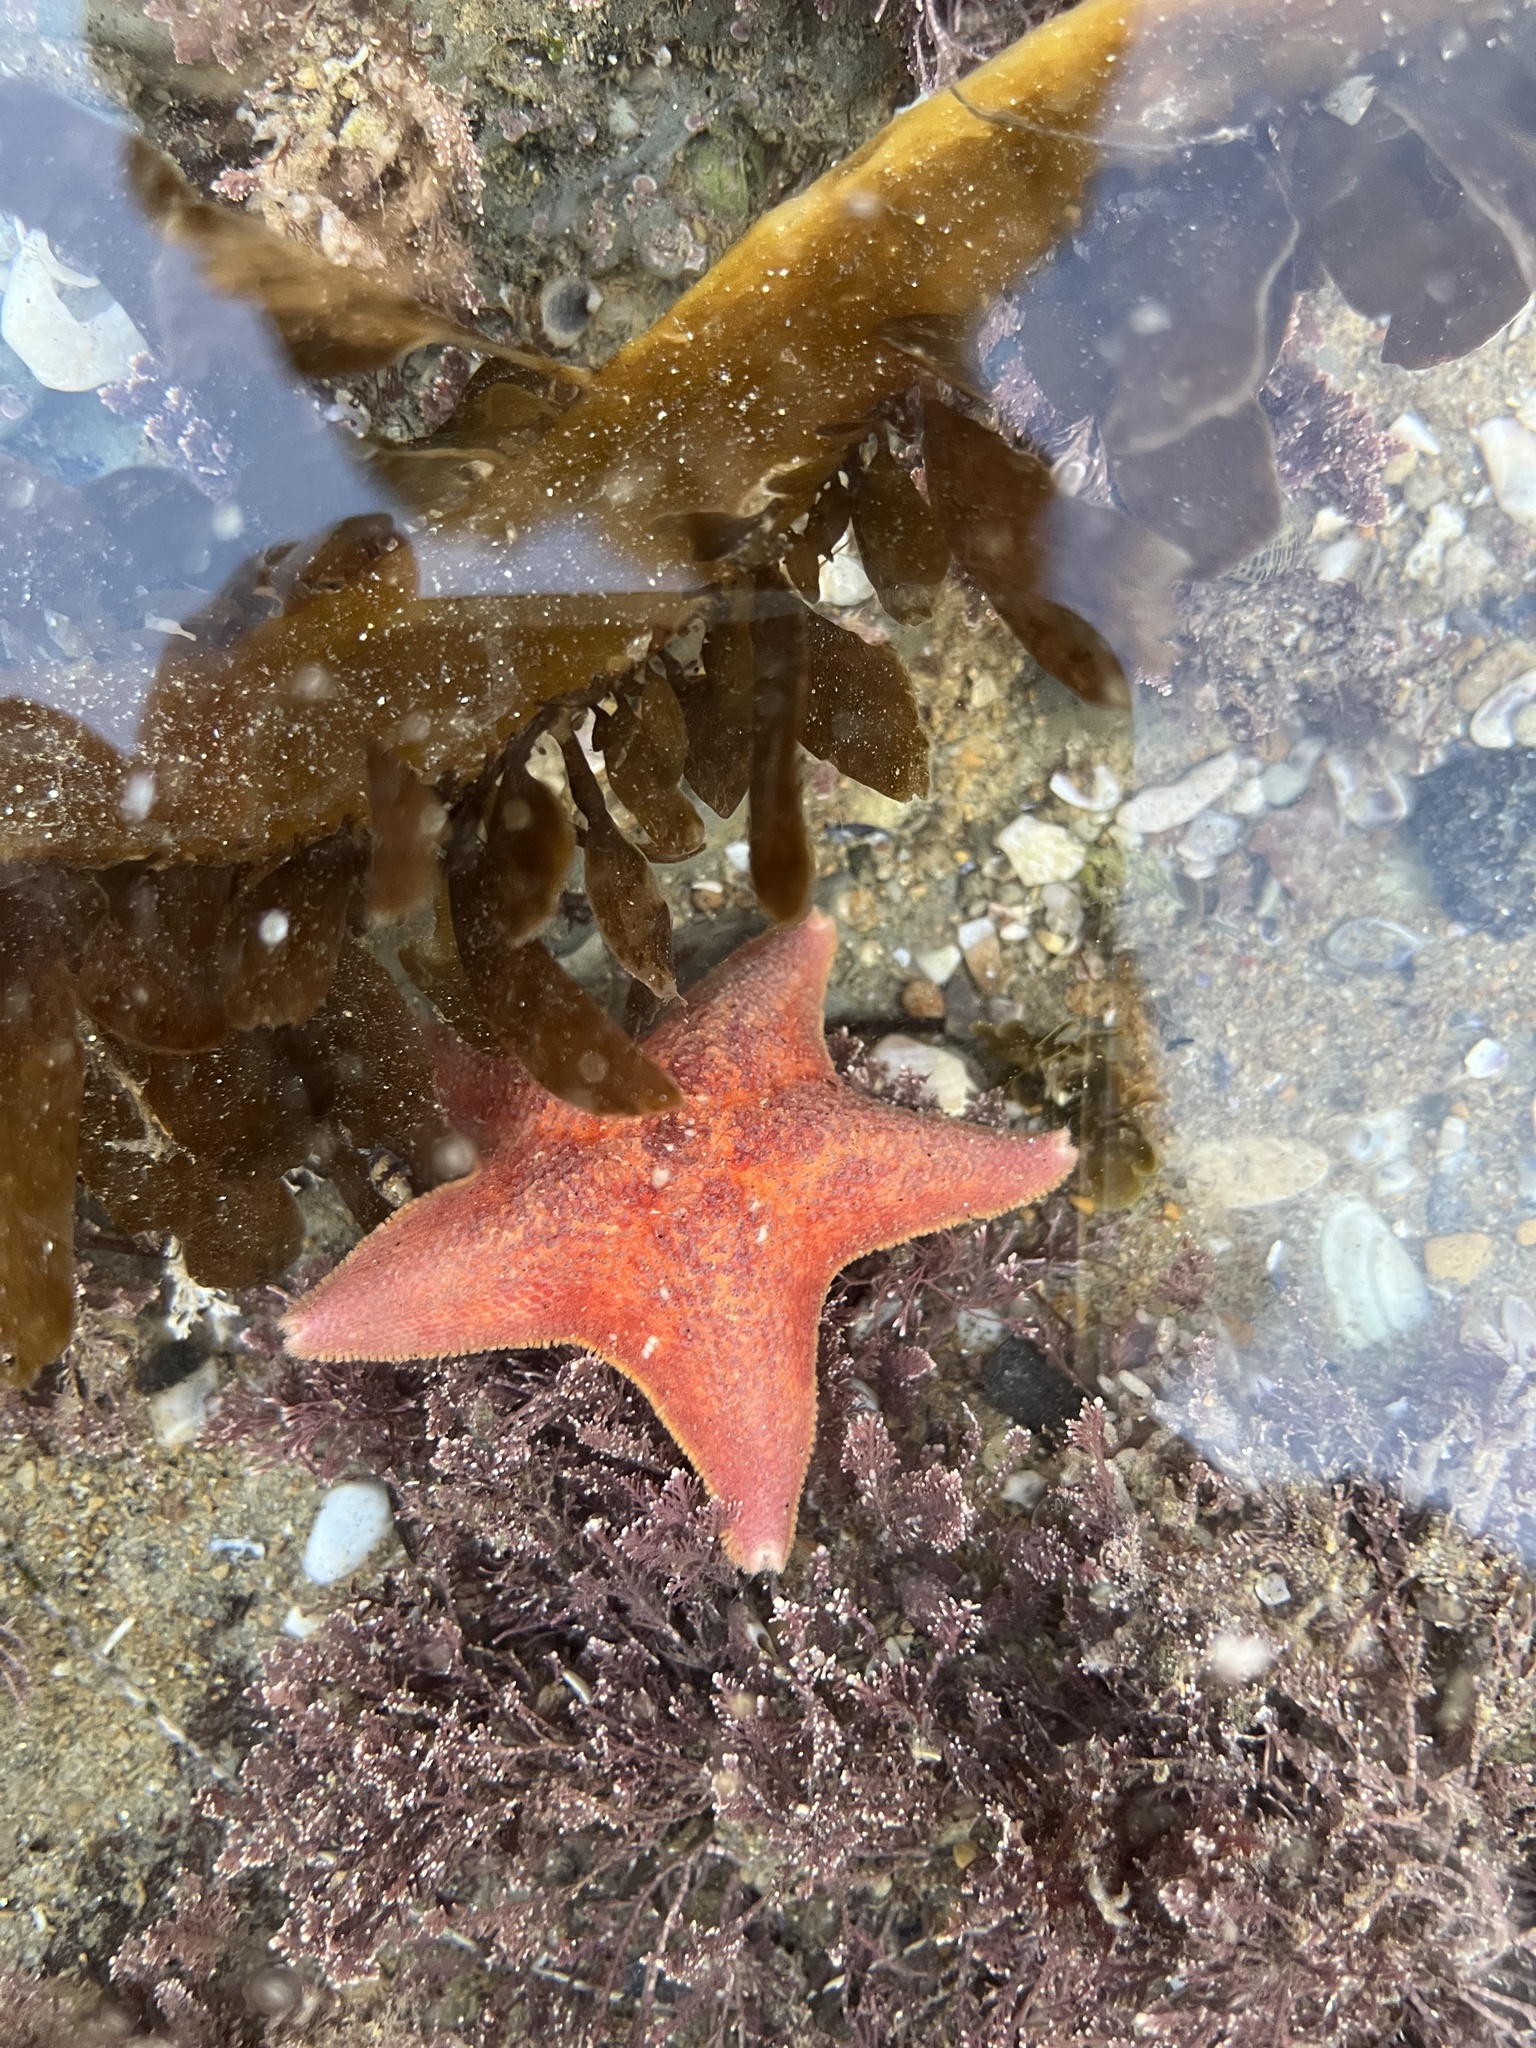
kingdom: Animalia
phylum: Echinodermata
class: Asteroidea
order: Valvatida
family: Asterinidae
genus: Patiria
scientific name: Patiria miniata
